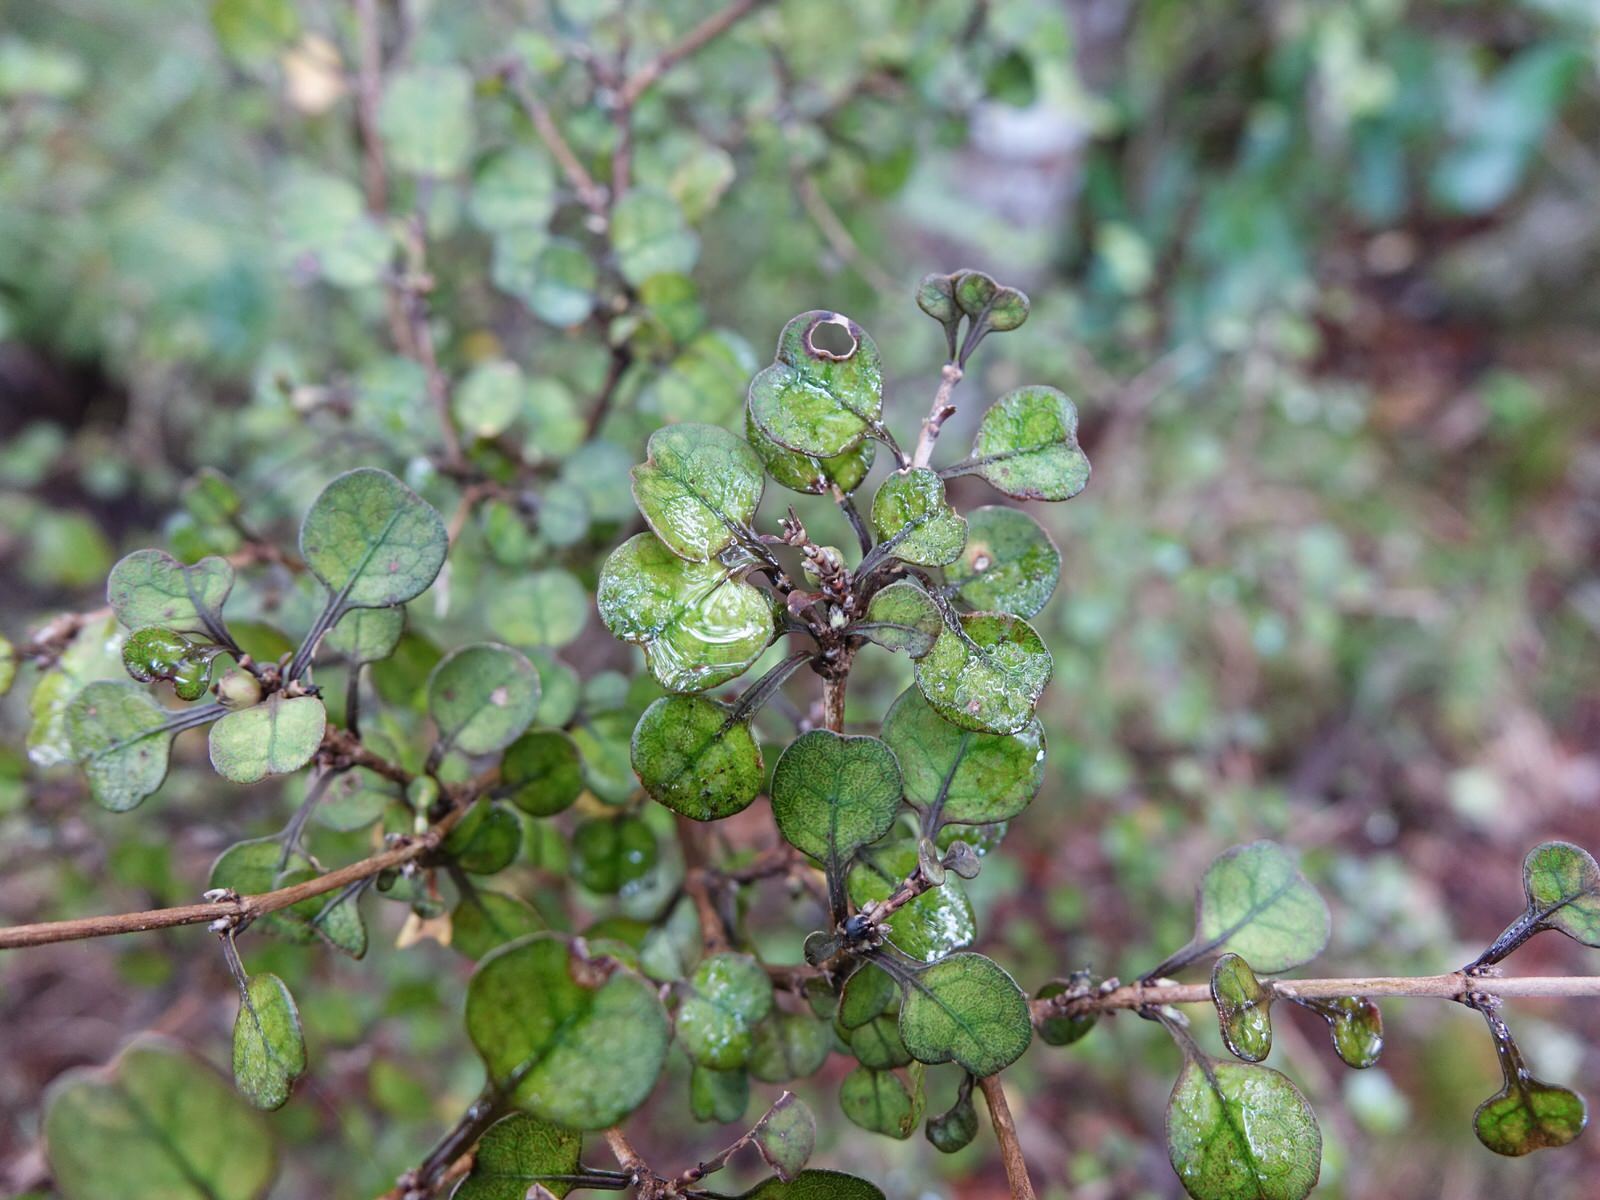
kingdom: Plantae
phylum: Tracheophyta
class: Magnoliopsida
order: Gentianales
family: Rubiaceae
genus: Coprosma
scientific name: Coprosma spathulata
